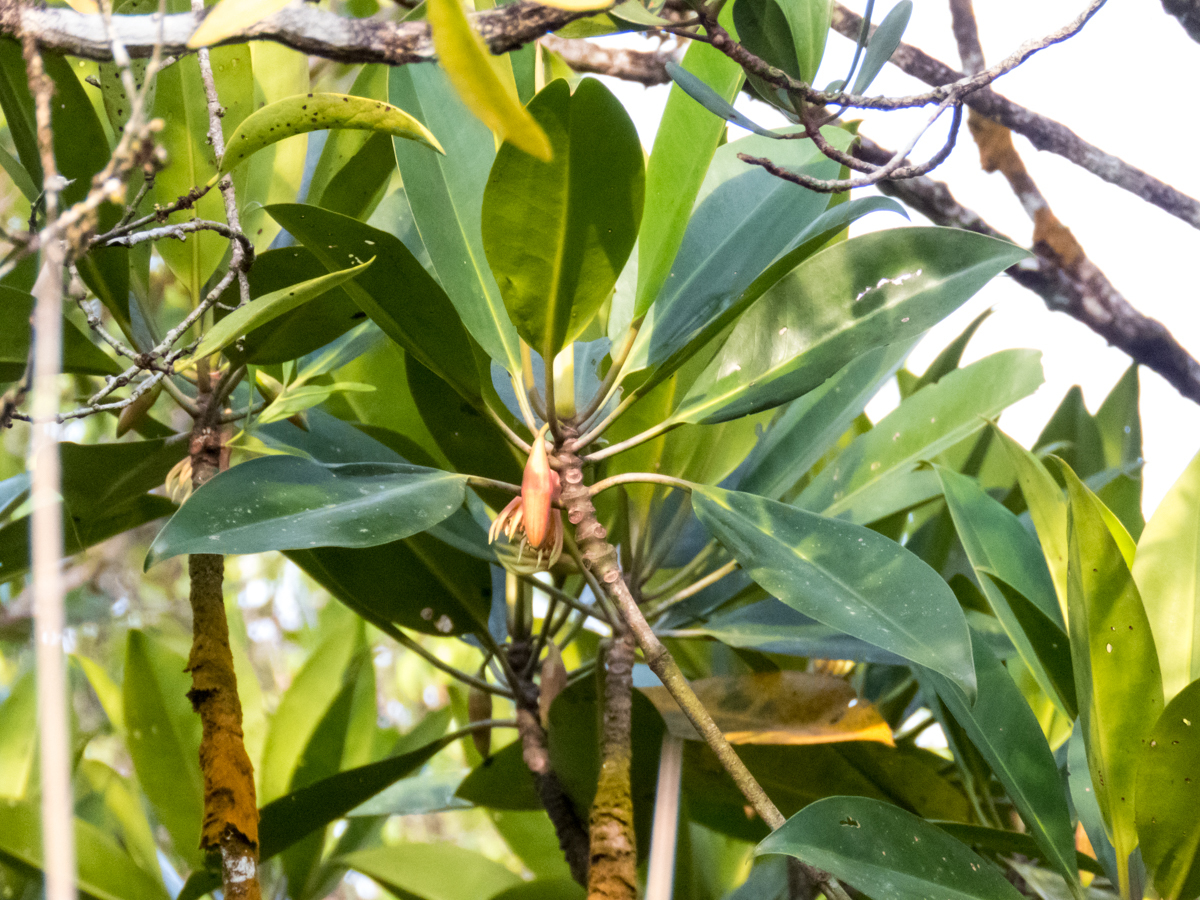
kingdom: Plantae
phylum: Tracheophyta
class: Magnoliopsida
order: Malpighiales
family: Rhizophoraceae
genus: Bruguiera
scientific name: Bruguiera gymnorhiza
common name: Oriental mangrove
